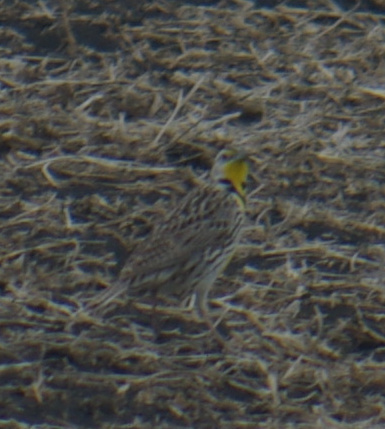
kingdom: Animalia
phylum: Chordata
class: Aves
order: Passeriformes
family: Icteridae
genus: Sturnella
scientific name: Sturnella neglecta
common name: Western meadowlark
